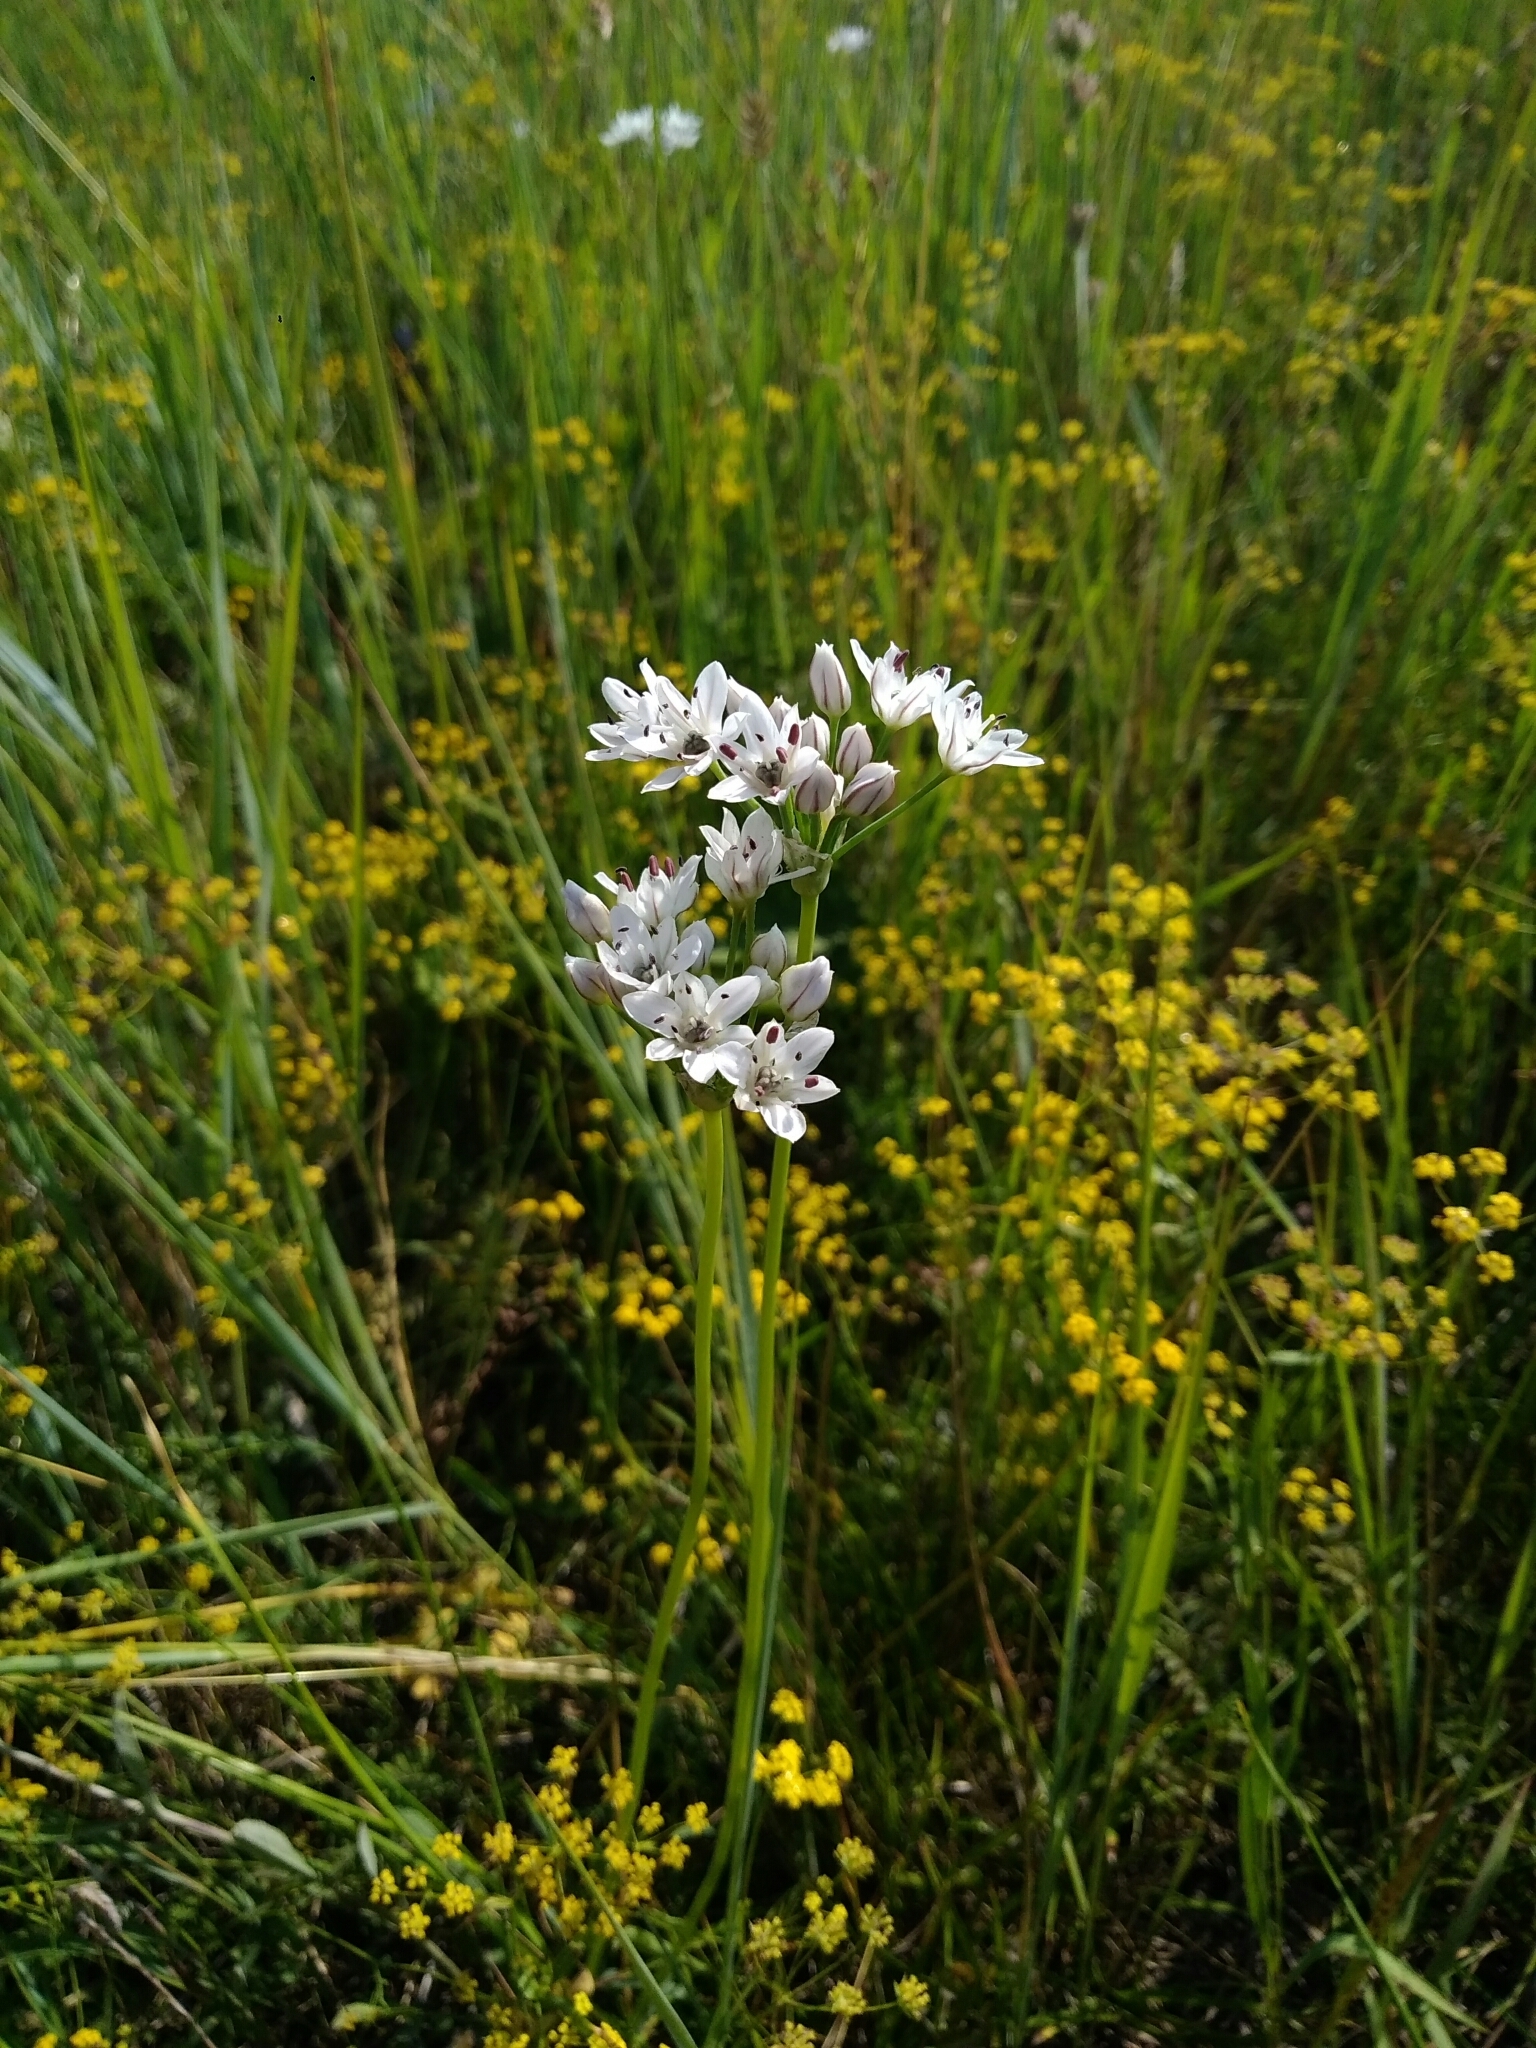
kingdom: Plantae
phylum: Tracheophyta
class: Liliopsida
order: Asparagales
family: Amaryllidaceae
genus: Allium
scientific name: Allium ramosum
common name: Fragrant garlic
